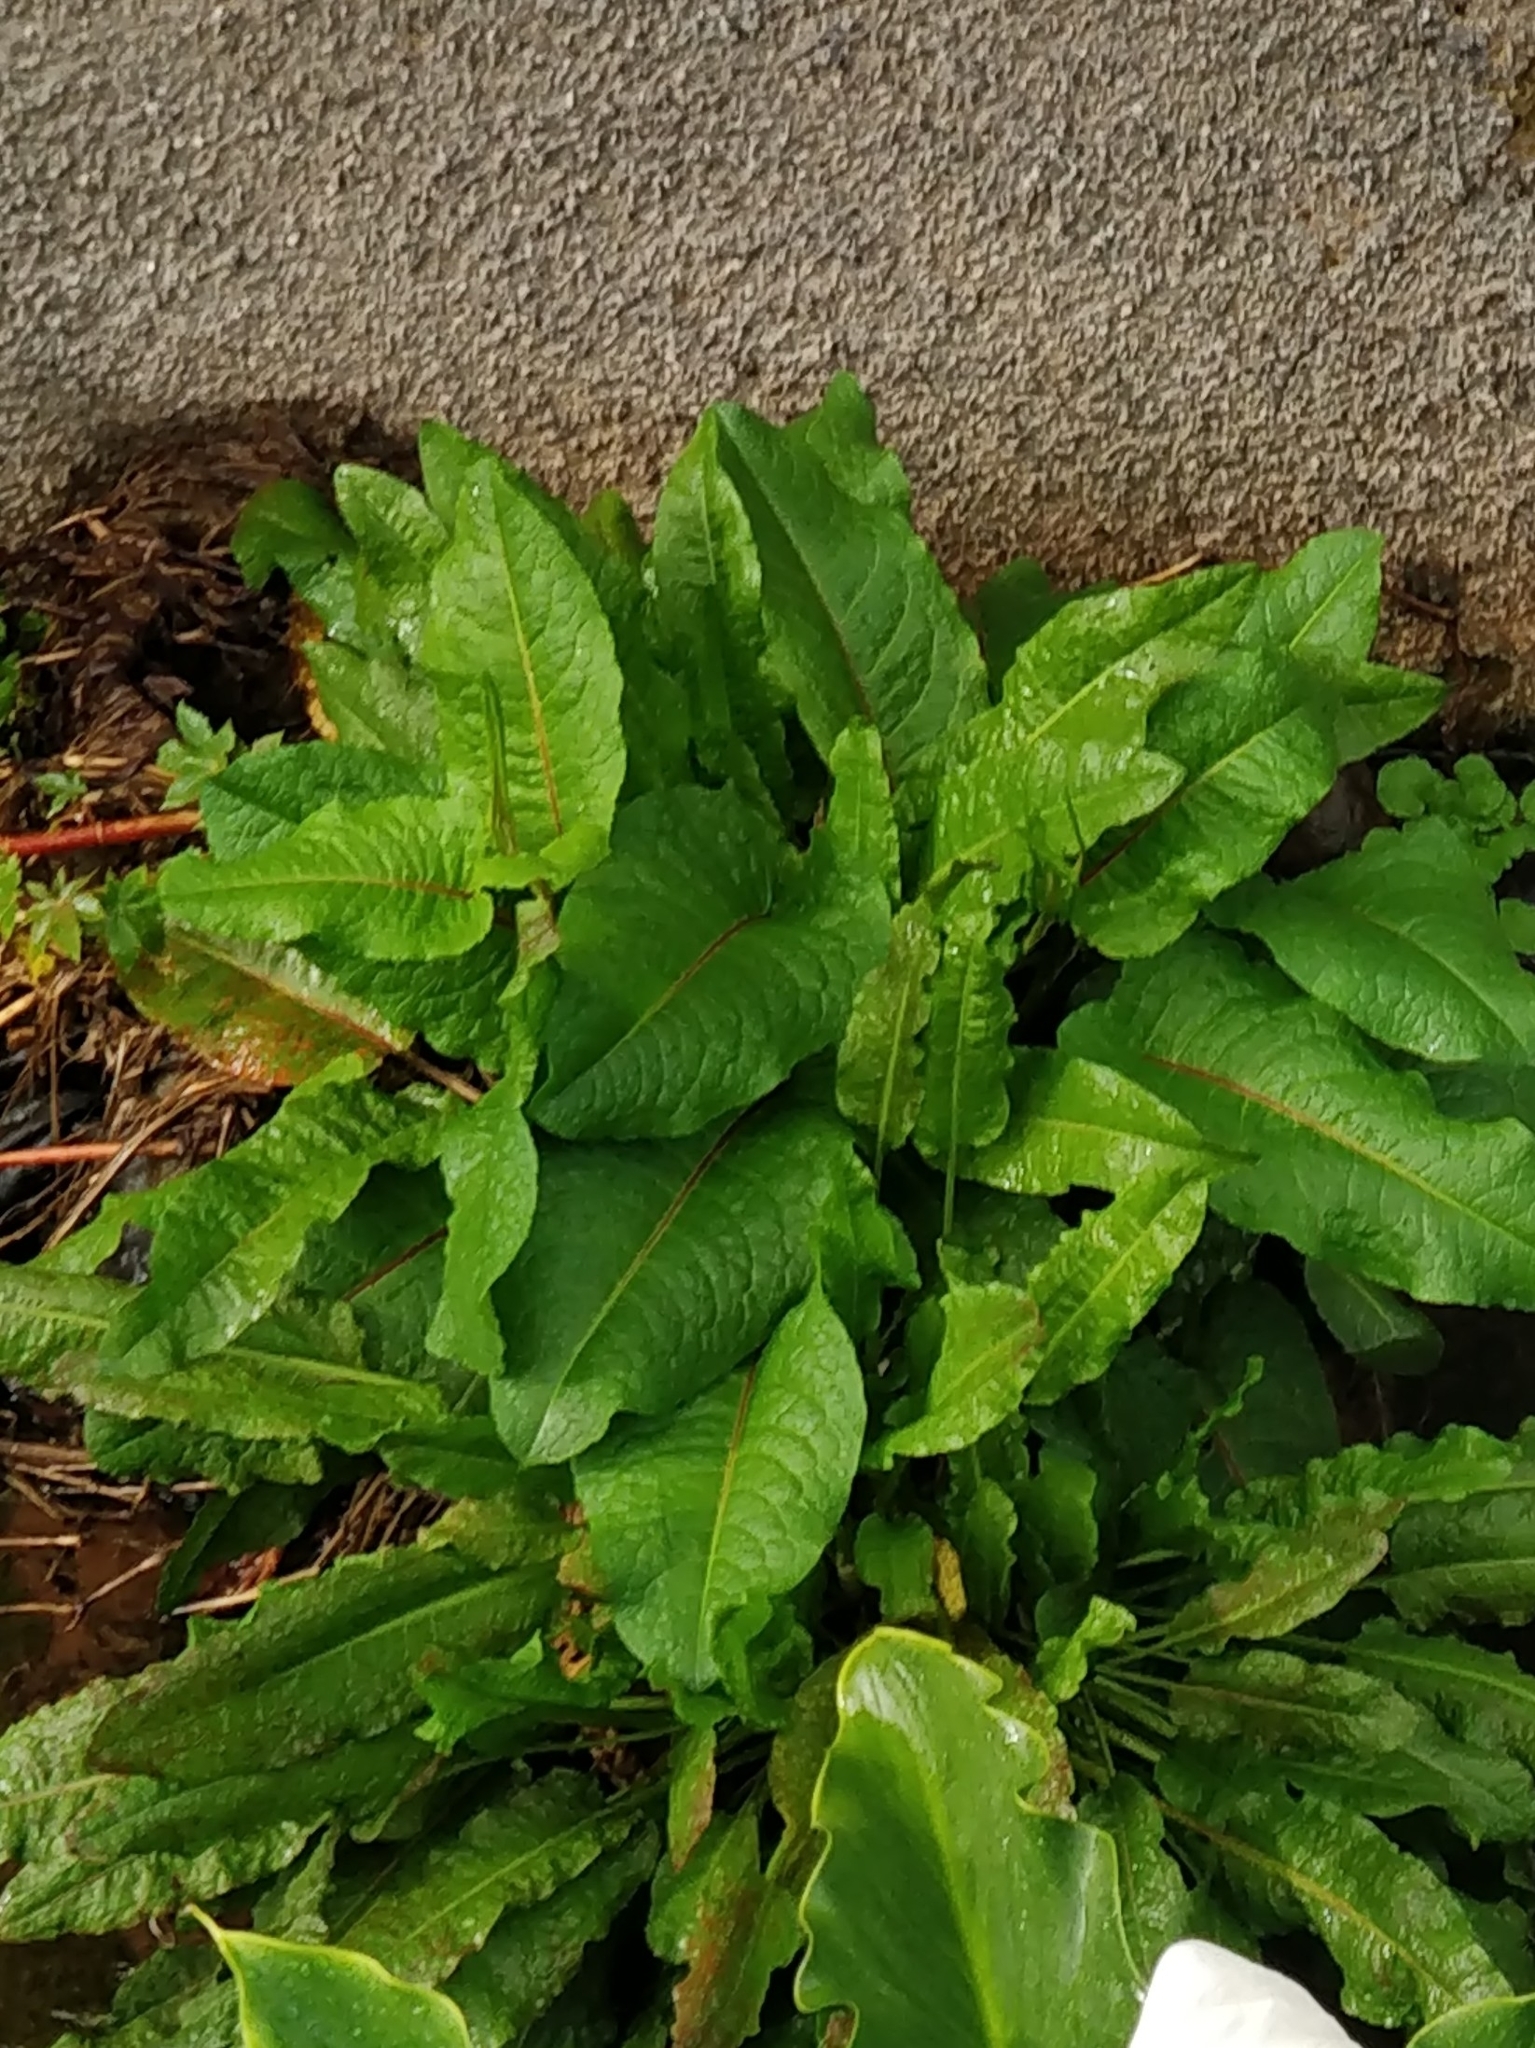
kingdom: Plantae
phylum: Tracheophyta
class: Magnoliopsida
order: Caryophyllales
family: Polygonaceae
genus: Rumex
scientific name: Rumex obtusifolius
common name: Bitter dock
